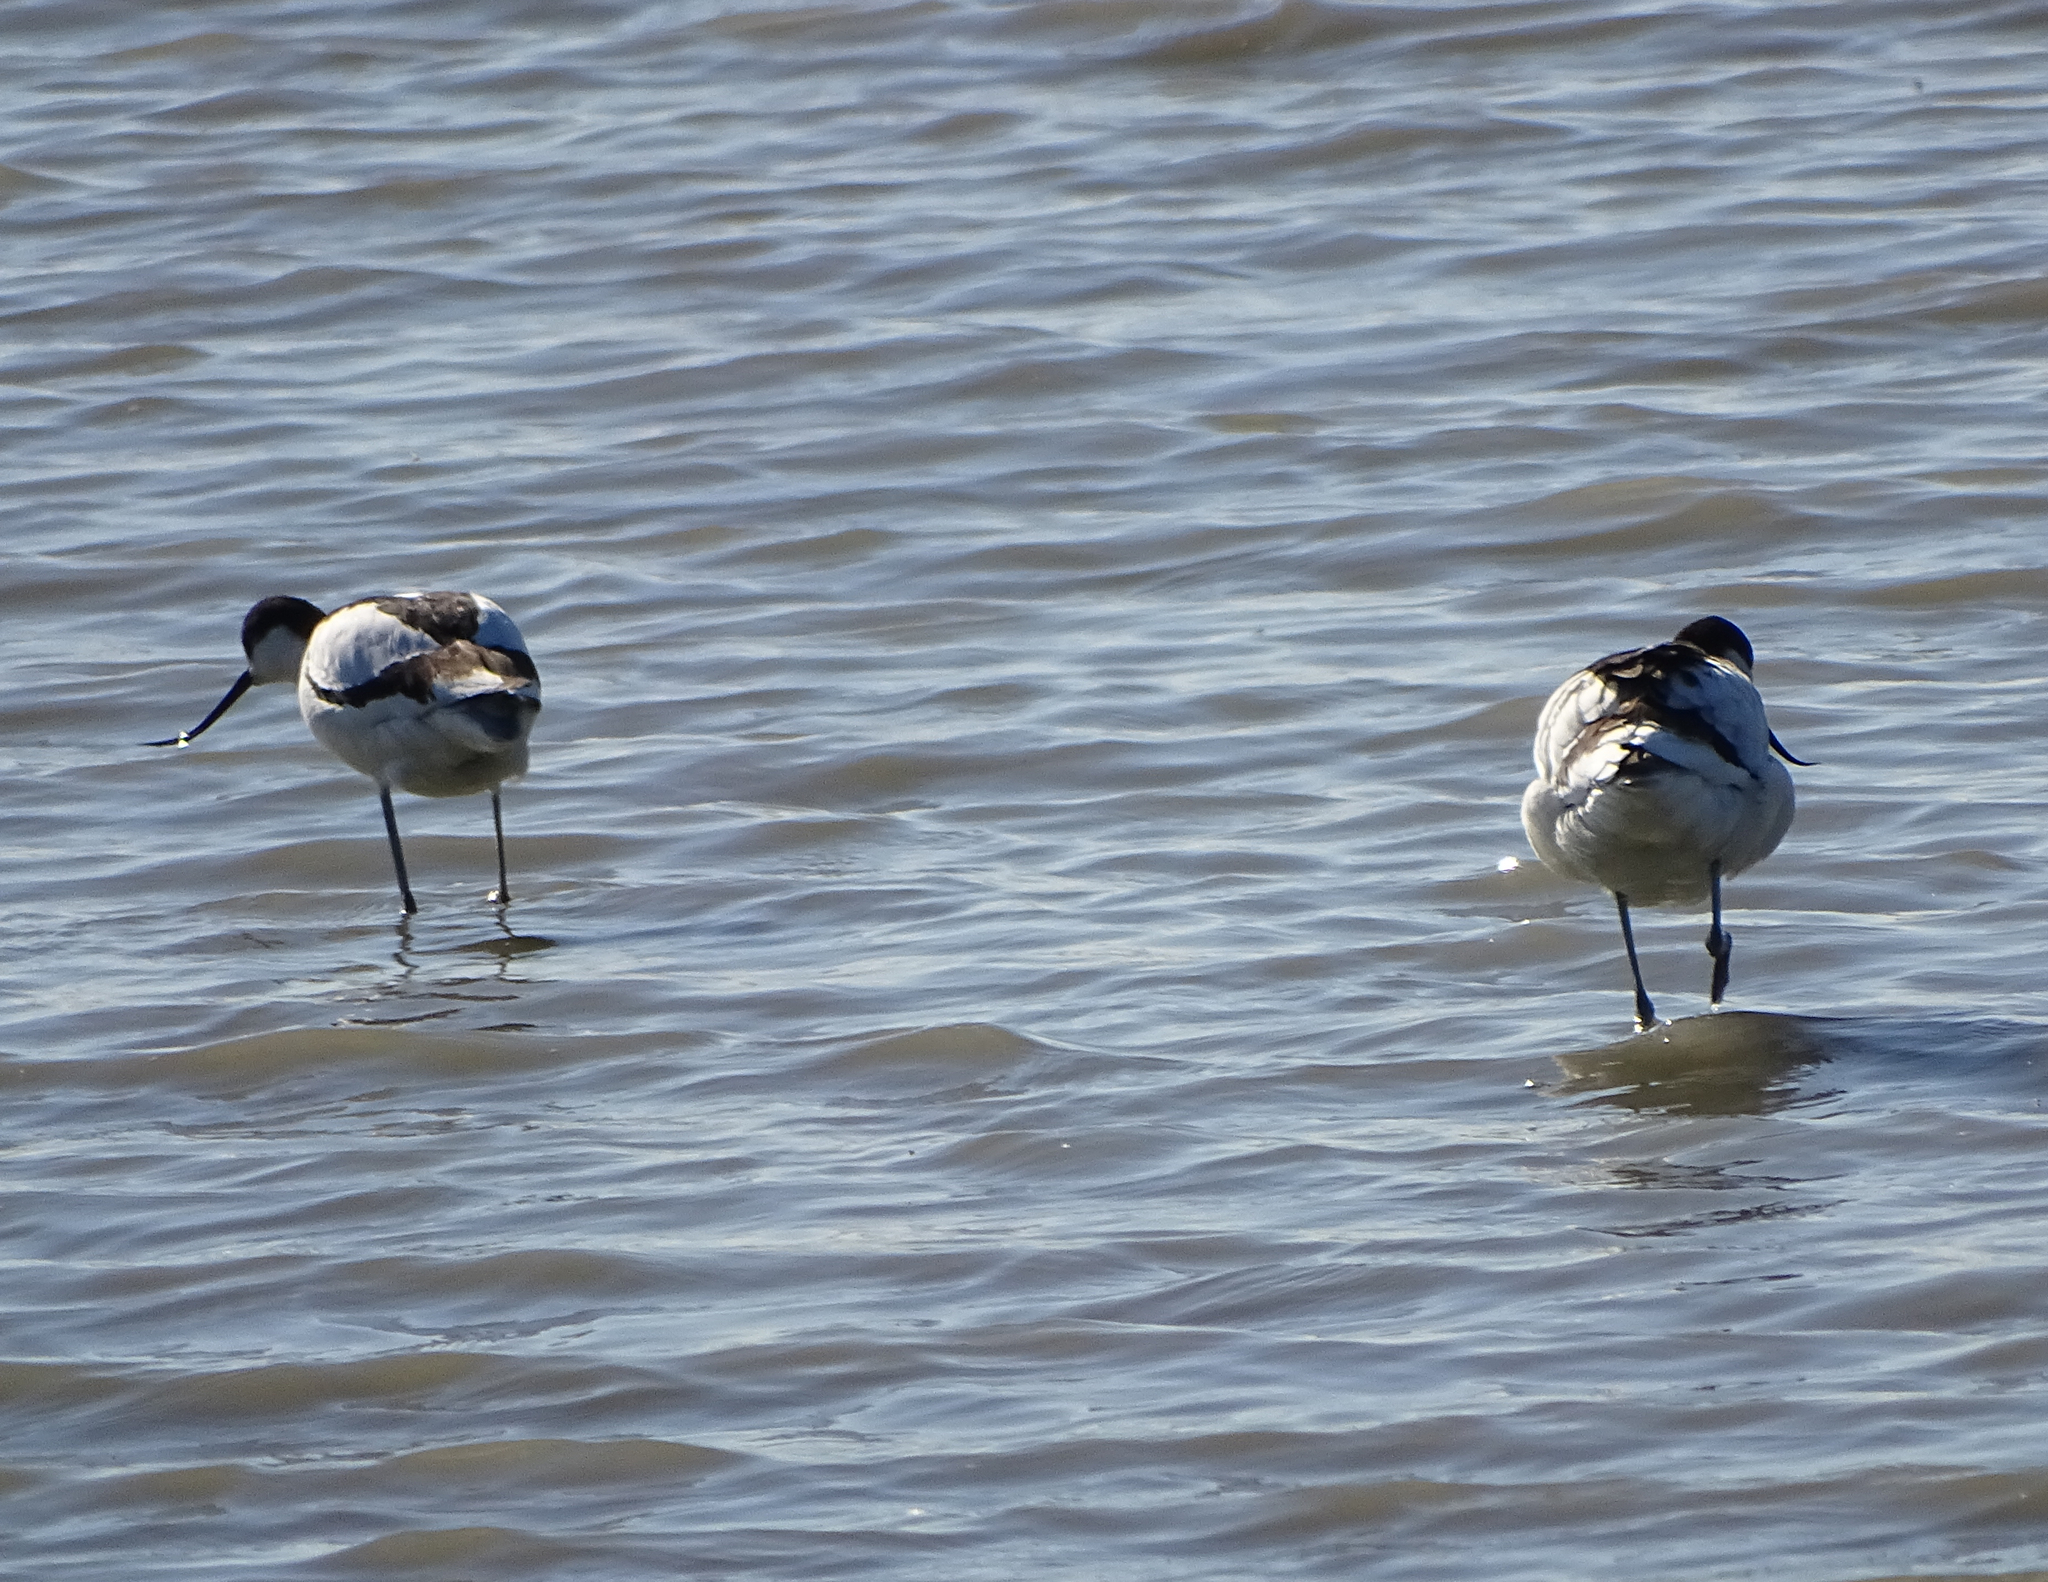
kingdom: Animalia
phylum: Chordata
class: Aves
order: Charadriiformes
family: Recurvirostridae
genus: Recurvirostra
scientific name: Recurvirostra avosetta
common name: Pied avocet
